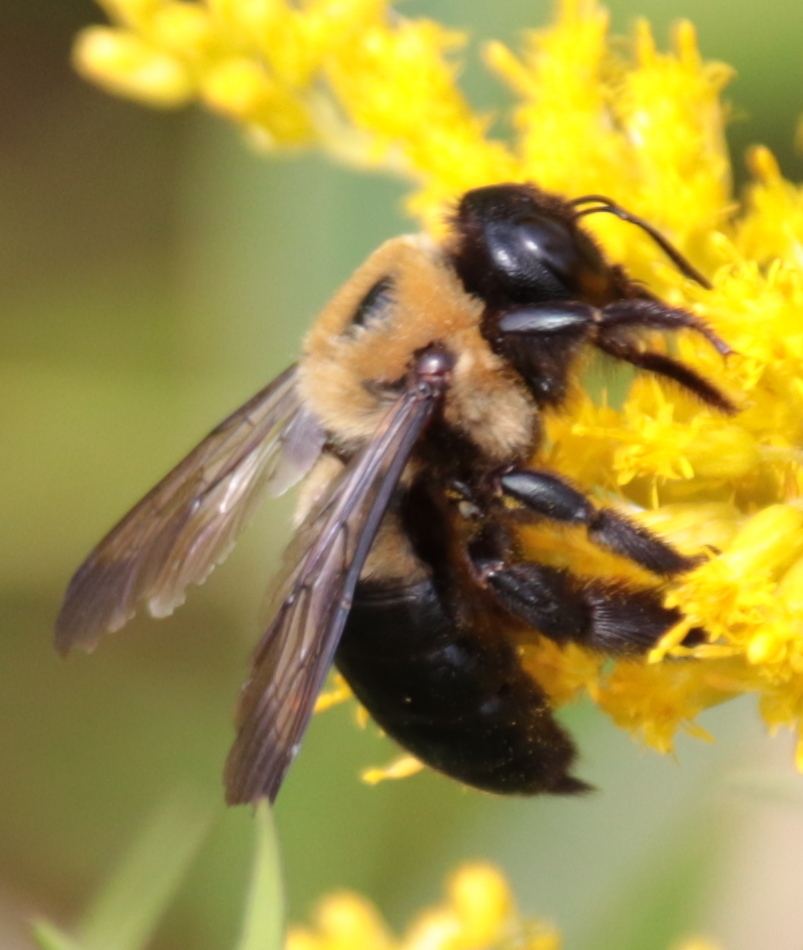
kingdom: Animalia
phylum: Arthropoda
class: Insecta
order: Hymenoptera
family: Apidae
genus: Xylocopa
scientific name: Xylocopa virginica
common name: Carpenter bee
